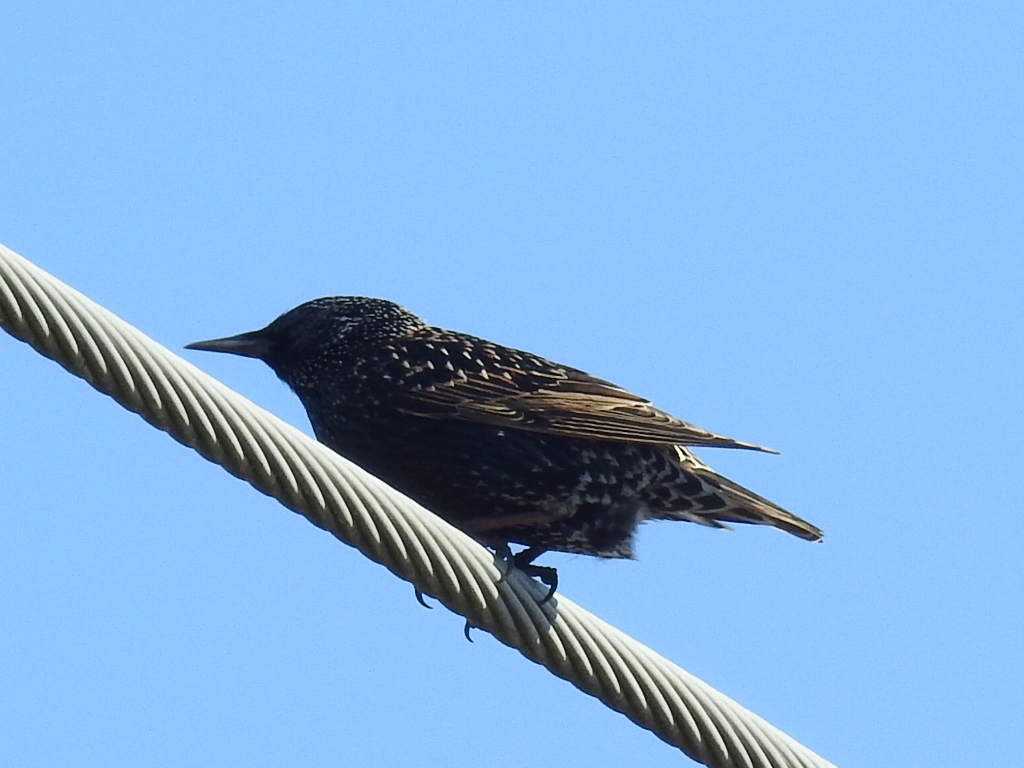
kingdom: Animalia
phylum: Chordata
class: Aves
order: Passeriformes
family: Sturnidae
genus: Sturnus
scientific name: Sturnus vulgaris
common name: Common starling
